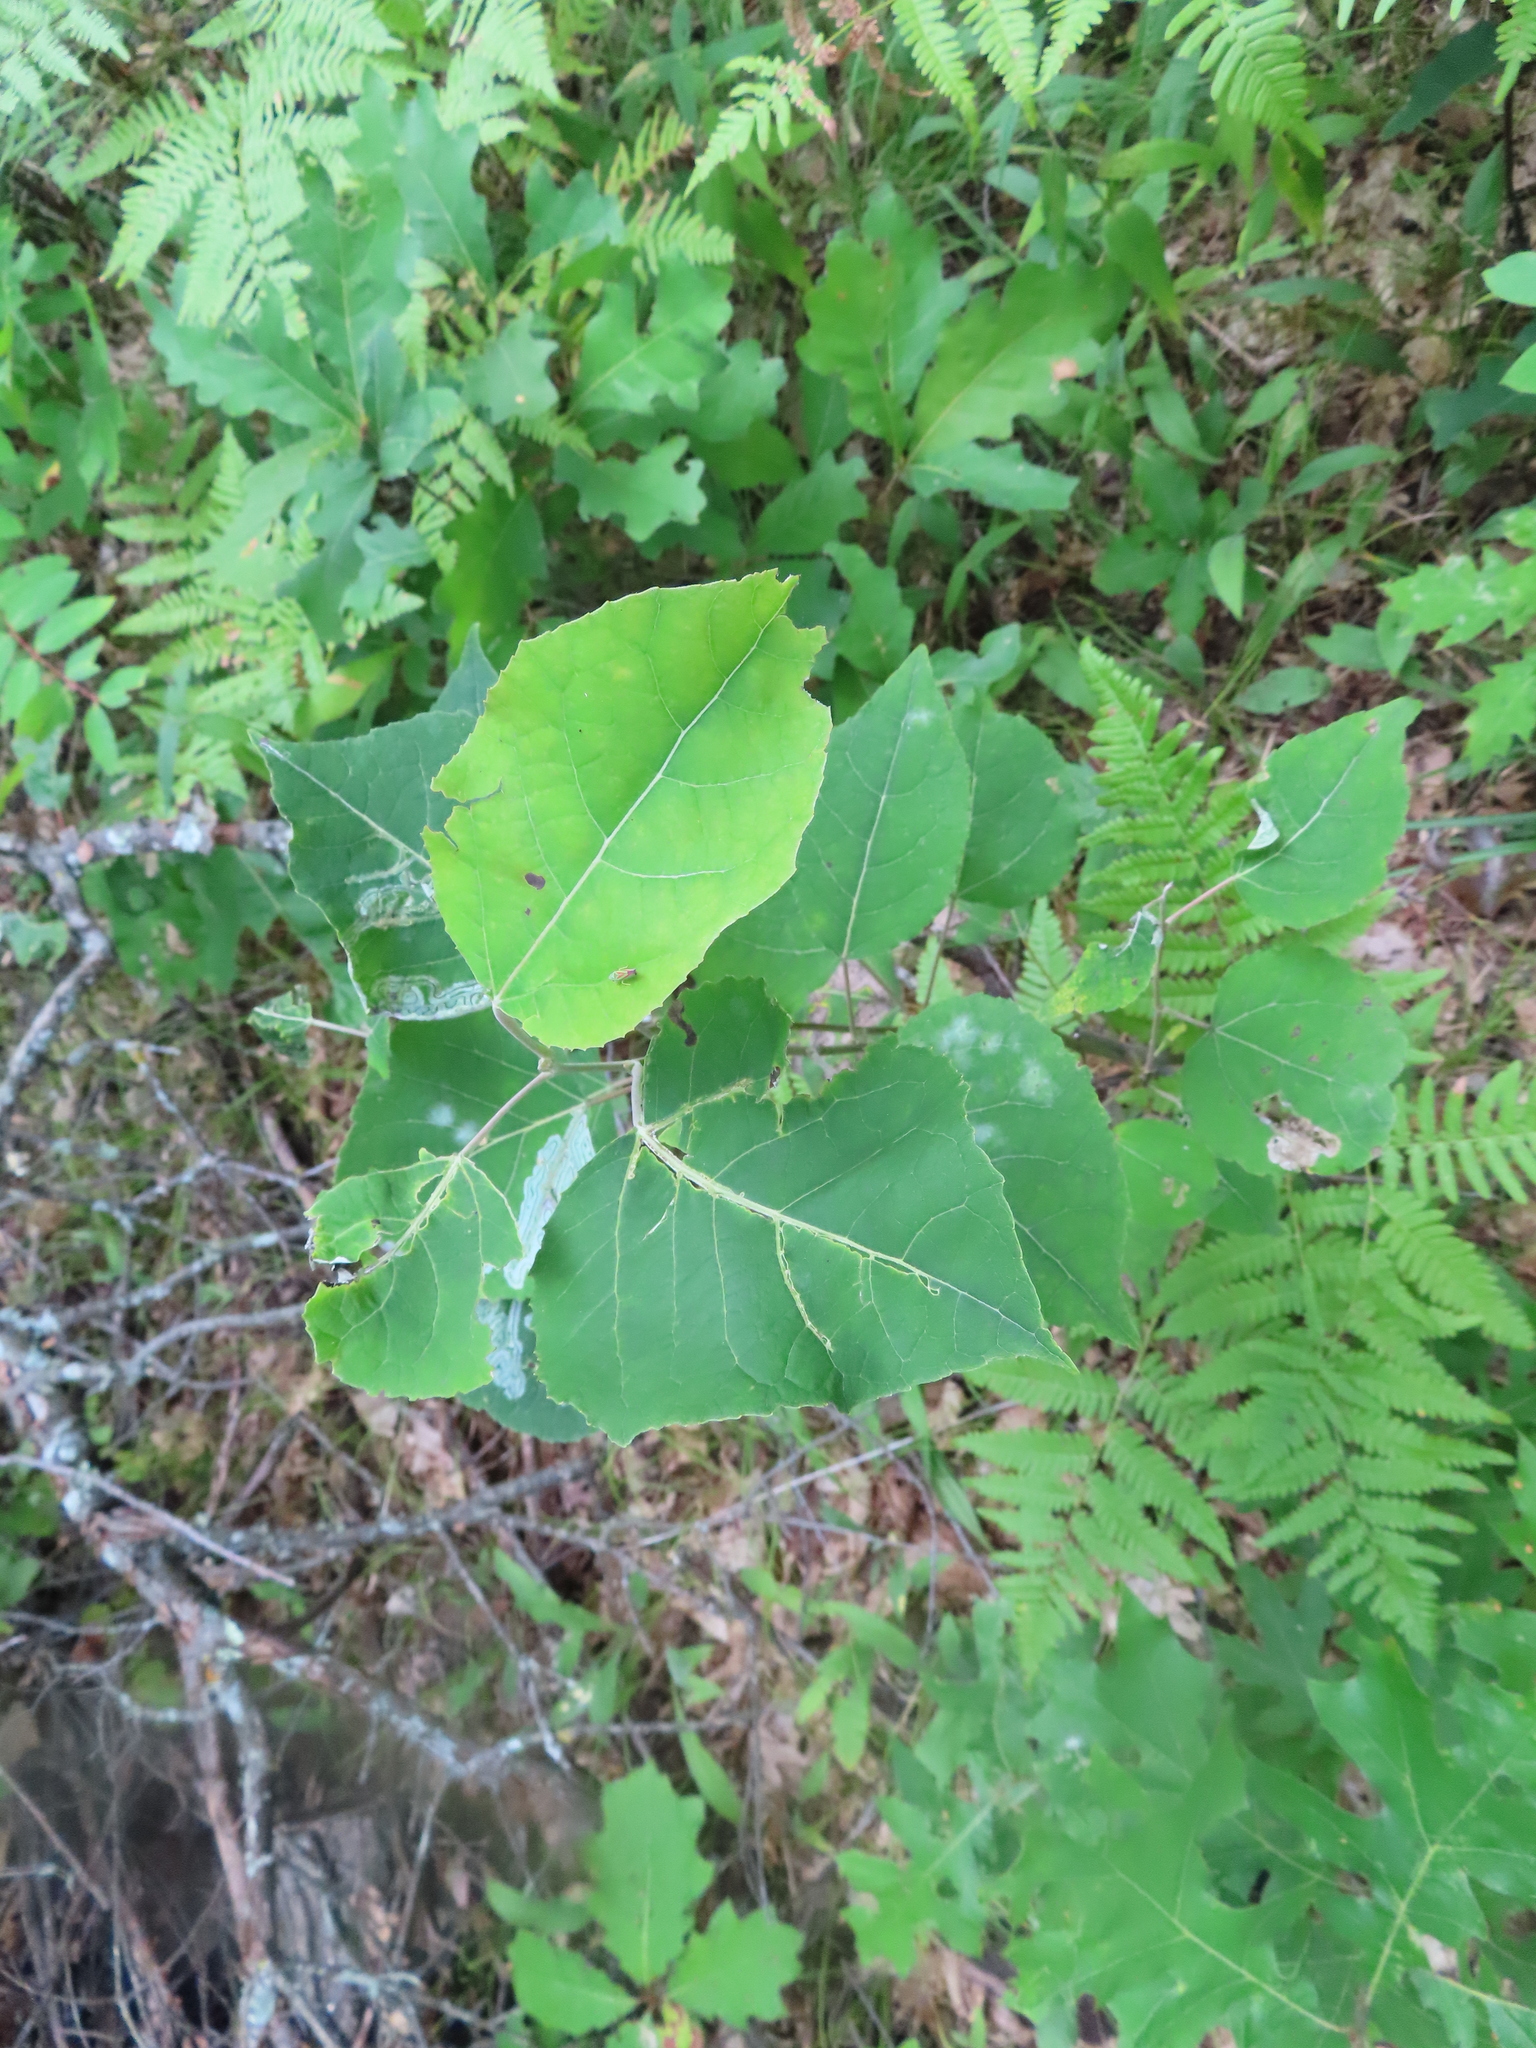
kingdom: Plantae
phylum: Tracheophyta
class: Magnoliopsida
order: Malpighiales
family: Salicaceae
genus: Populus
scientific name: Populus tremuloides
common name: Quaking aspen
